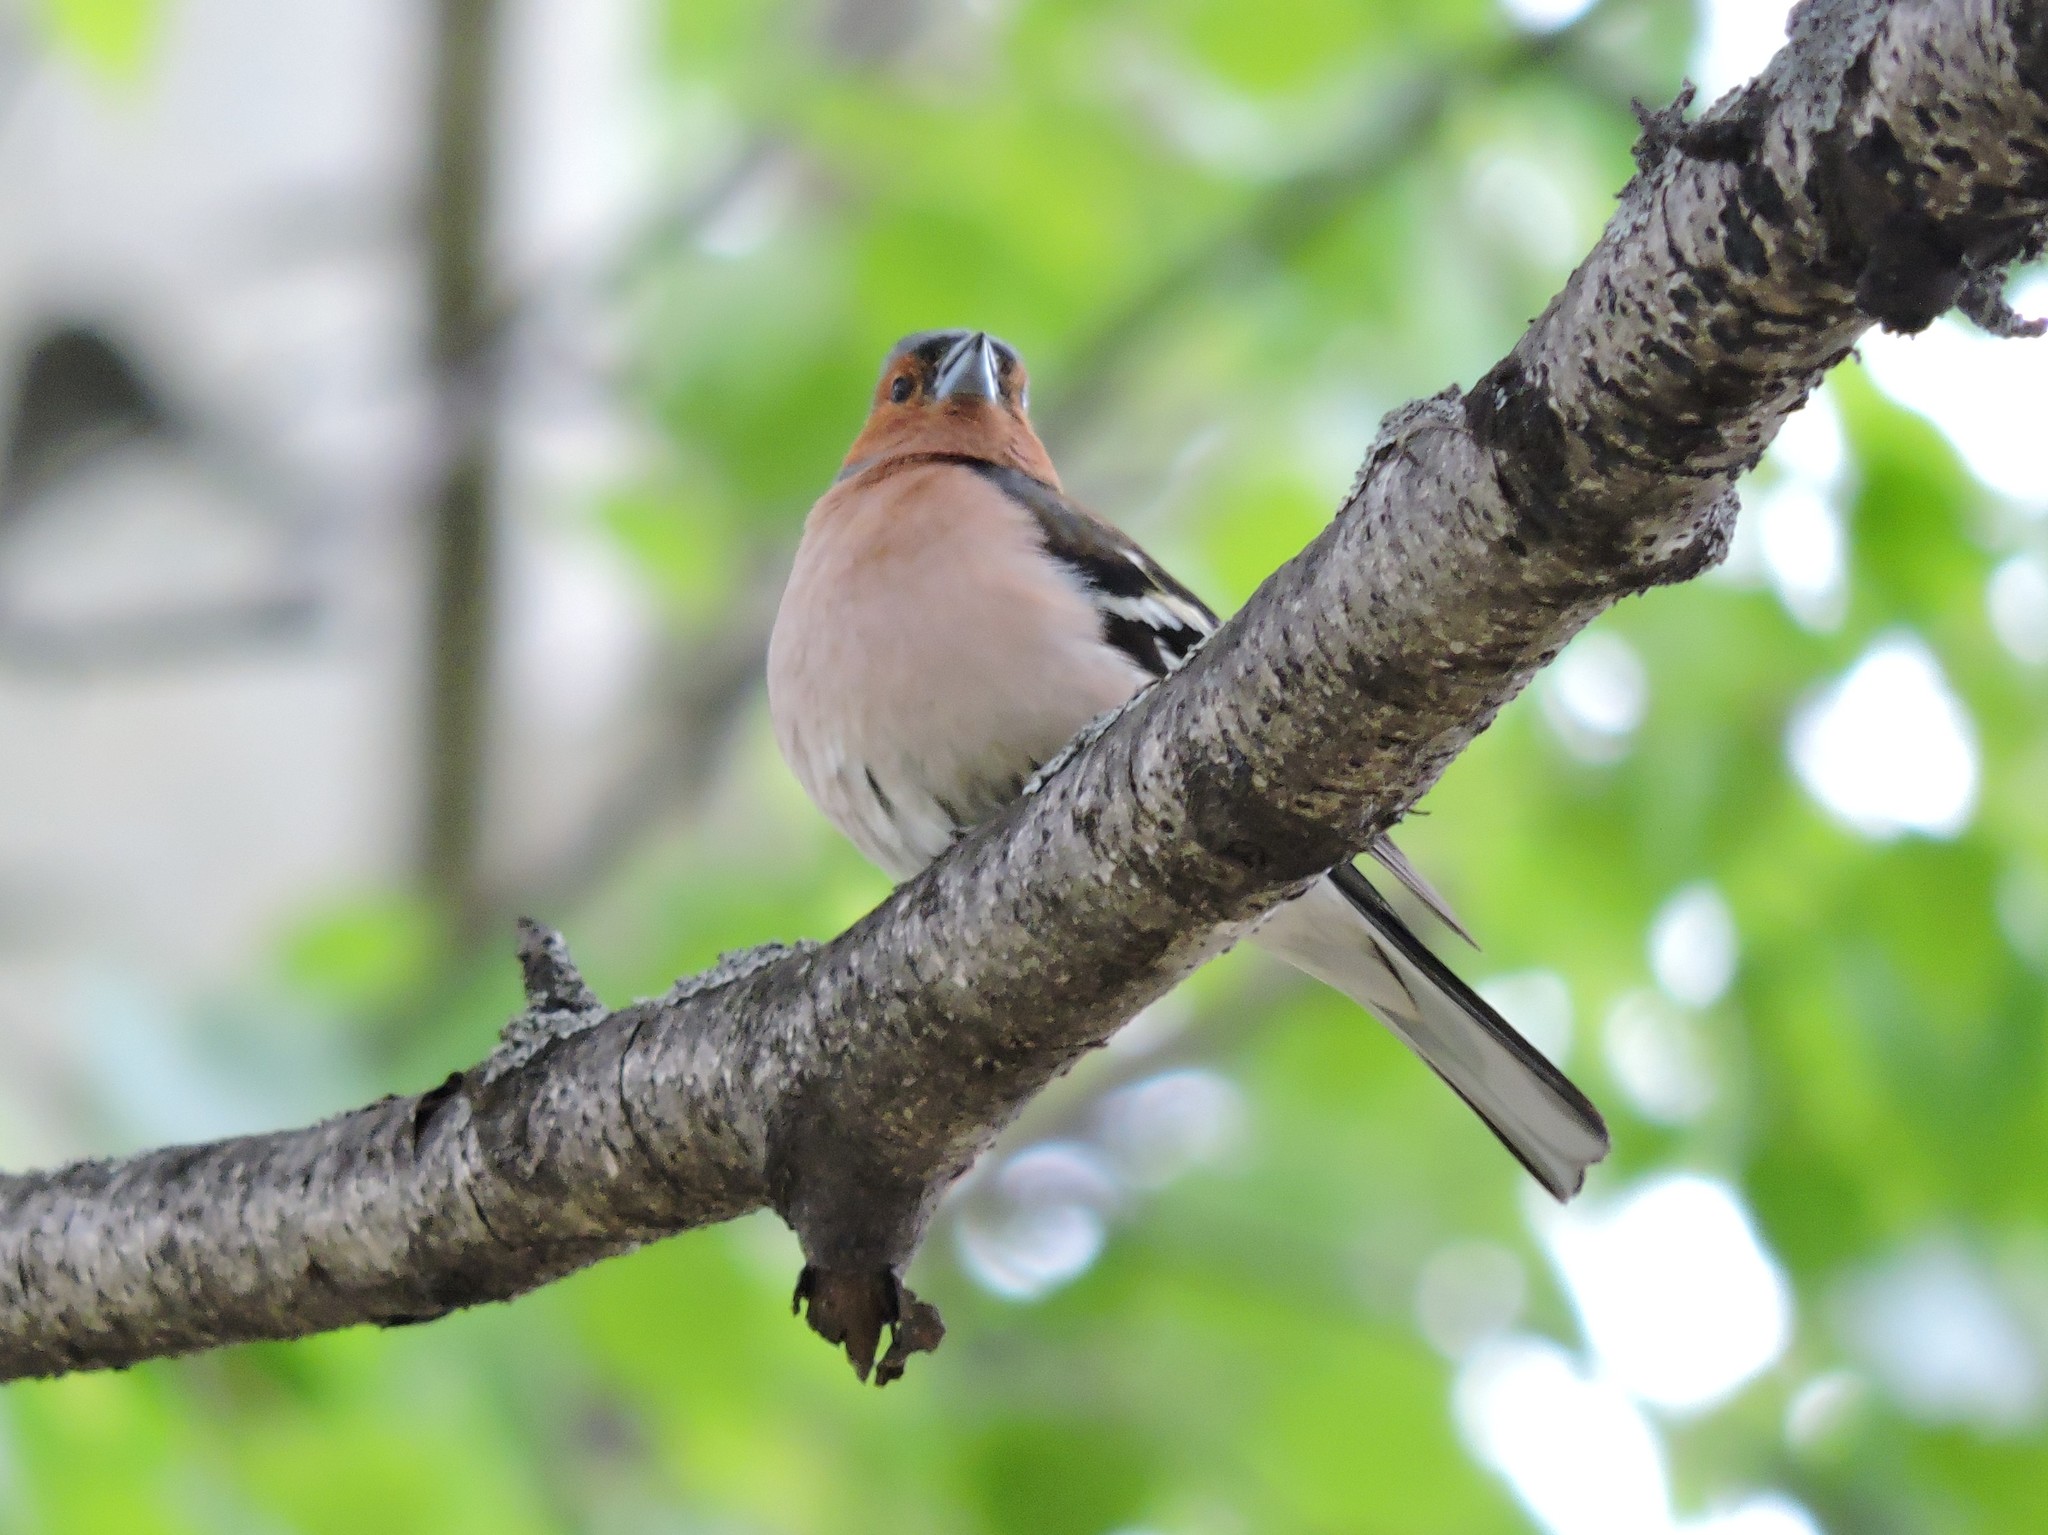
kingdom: Animalia
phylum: Chordata
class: Aves
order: Passeriformes
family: Fringillidae
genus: Fringilla
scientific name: Fringilla coelebs
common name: Common chaffinch
